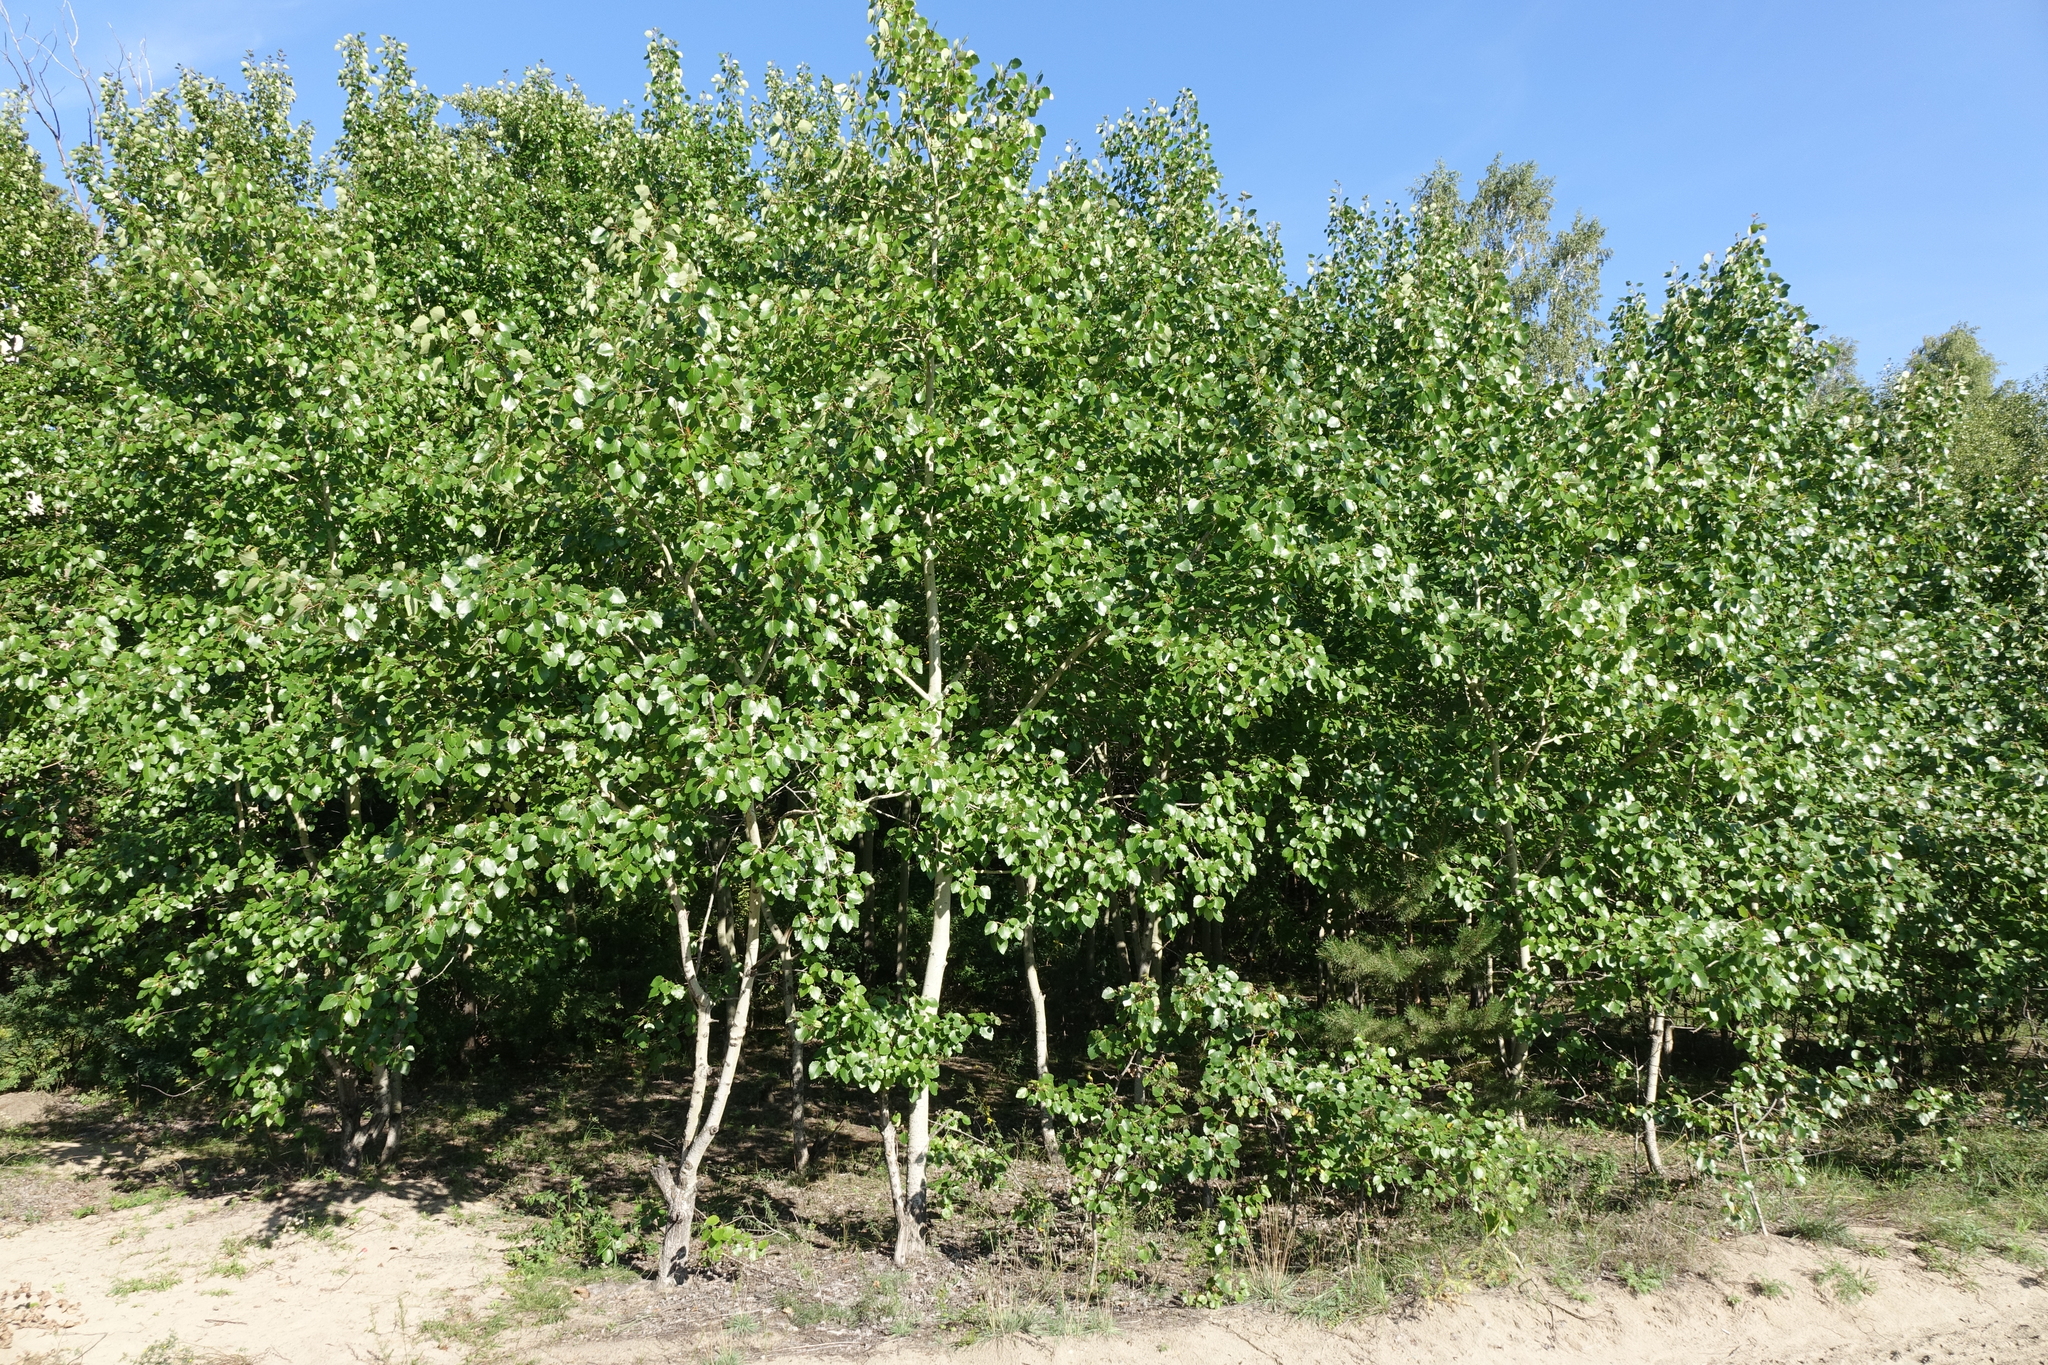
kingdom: Plantae
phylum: Tracheophyta
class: Magnoliopsida
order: Malpighiales
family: Salicaceae
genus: Populus
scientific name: Populus tremula
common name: European aspen
